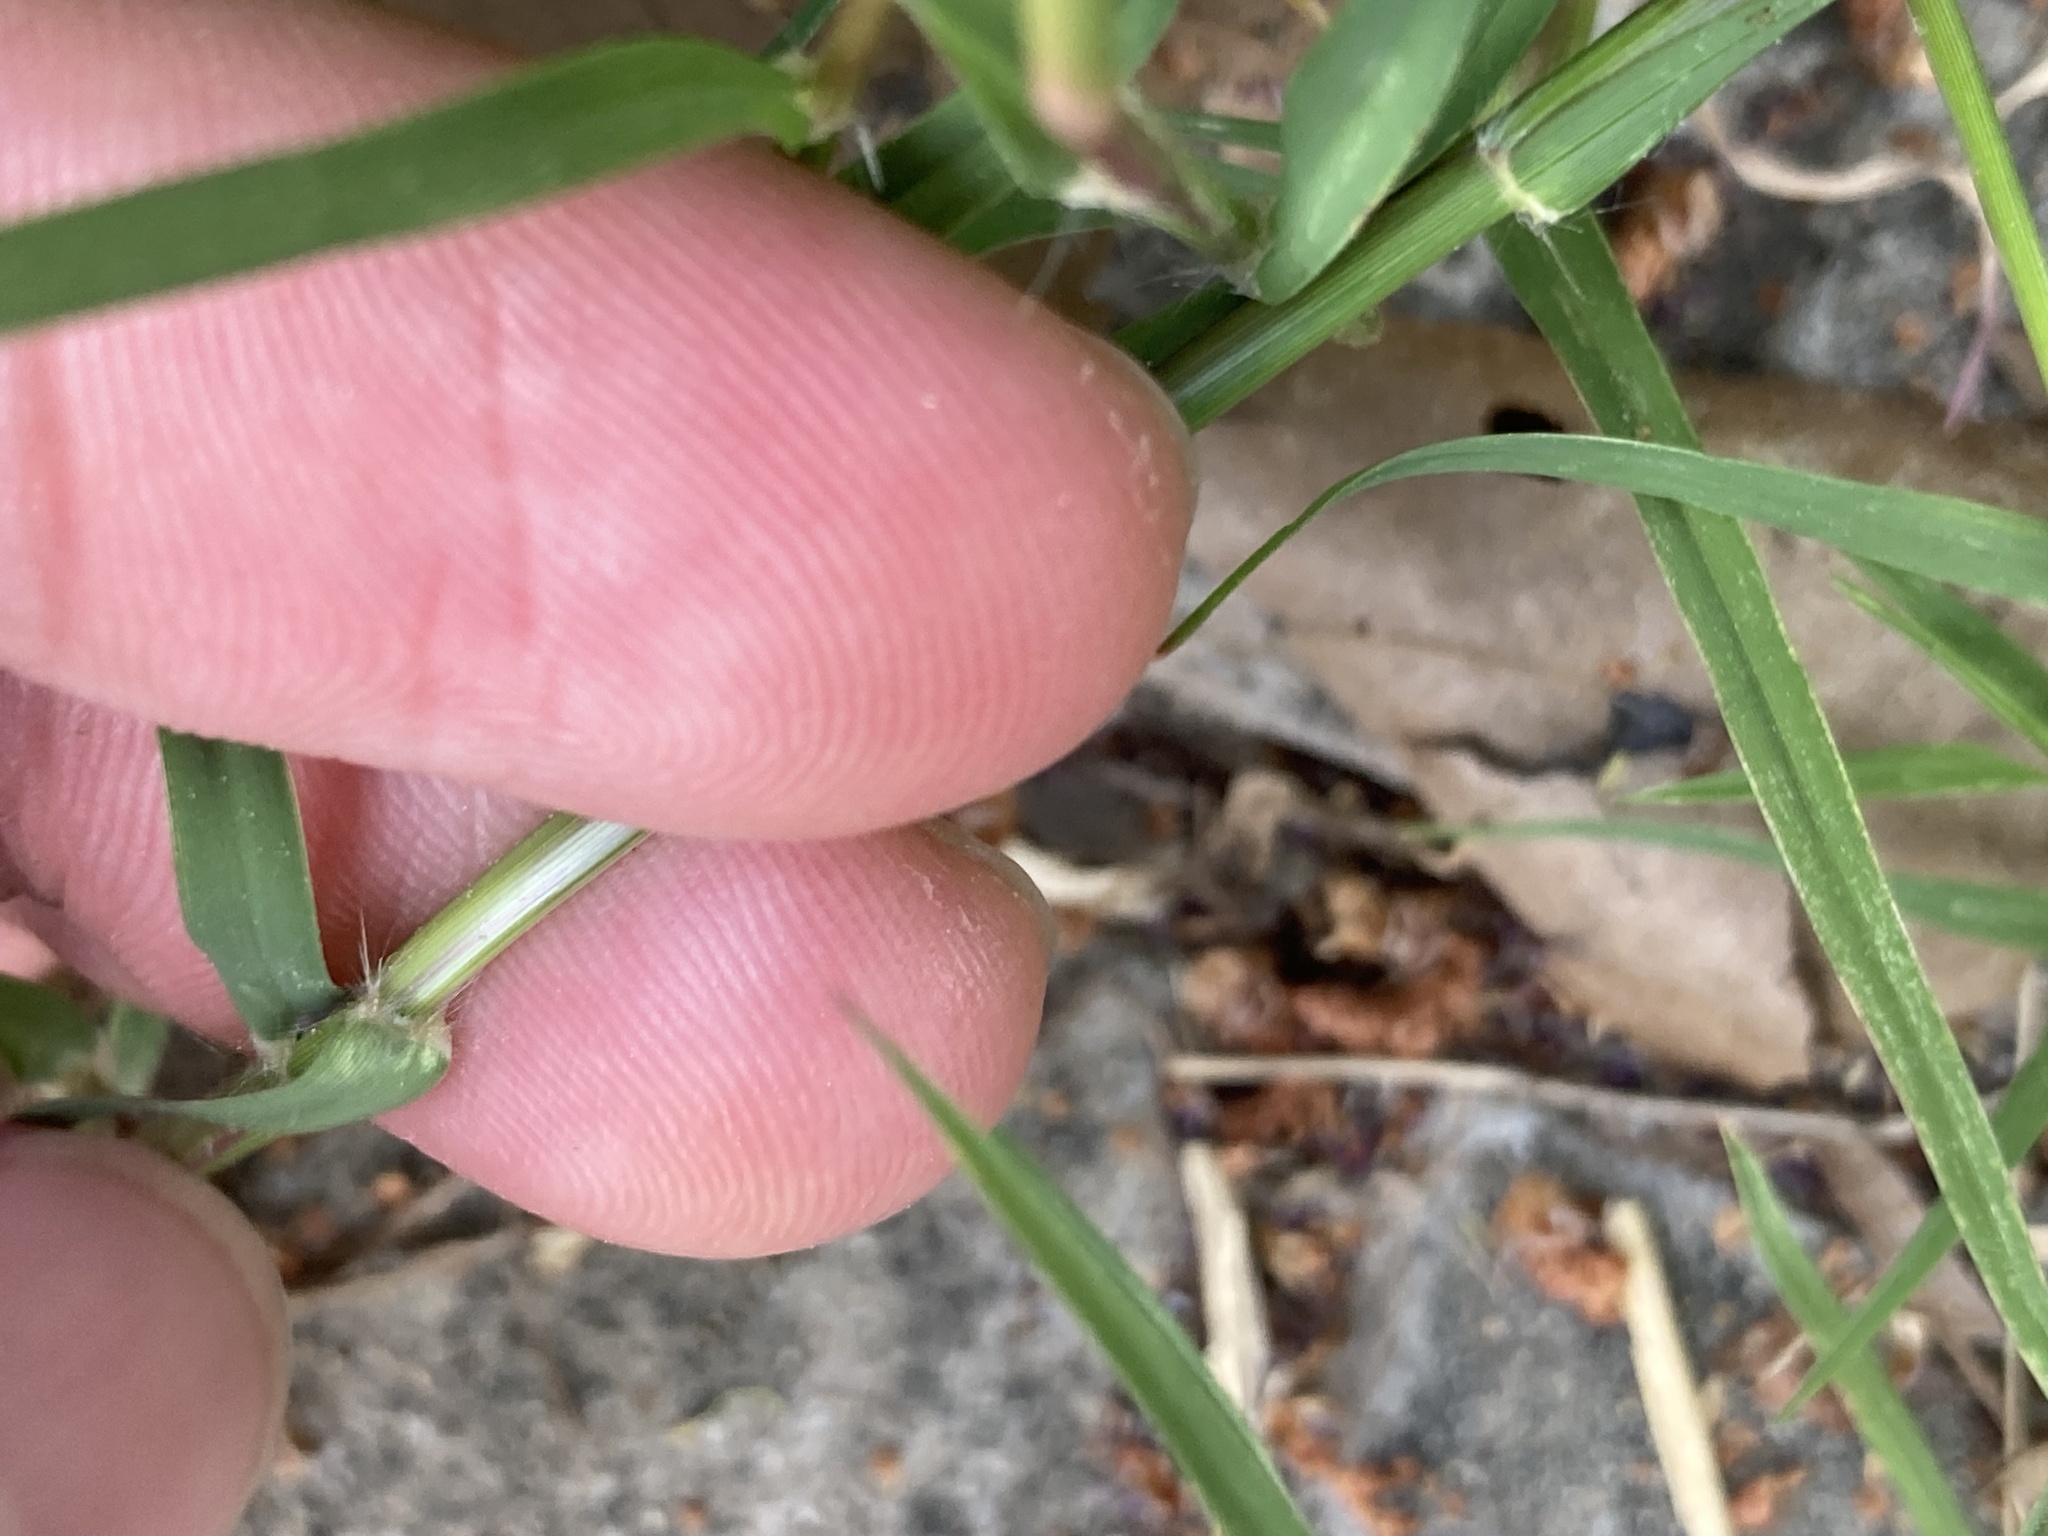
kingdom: Plantae
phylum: Tracheophyta
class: Liliopsida
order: Poales
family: Poaceae
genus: Cynodon
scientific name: Cynodon dactylon
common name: Bermuda grass
